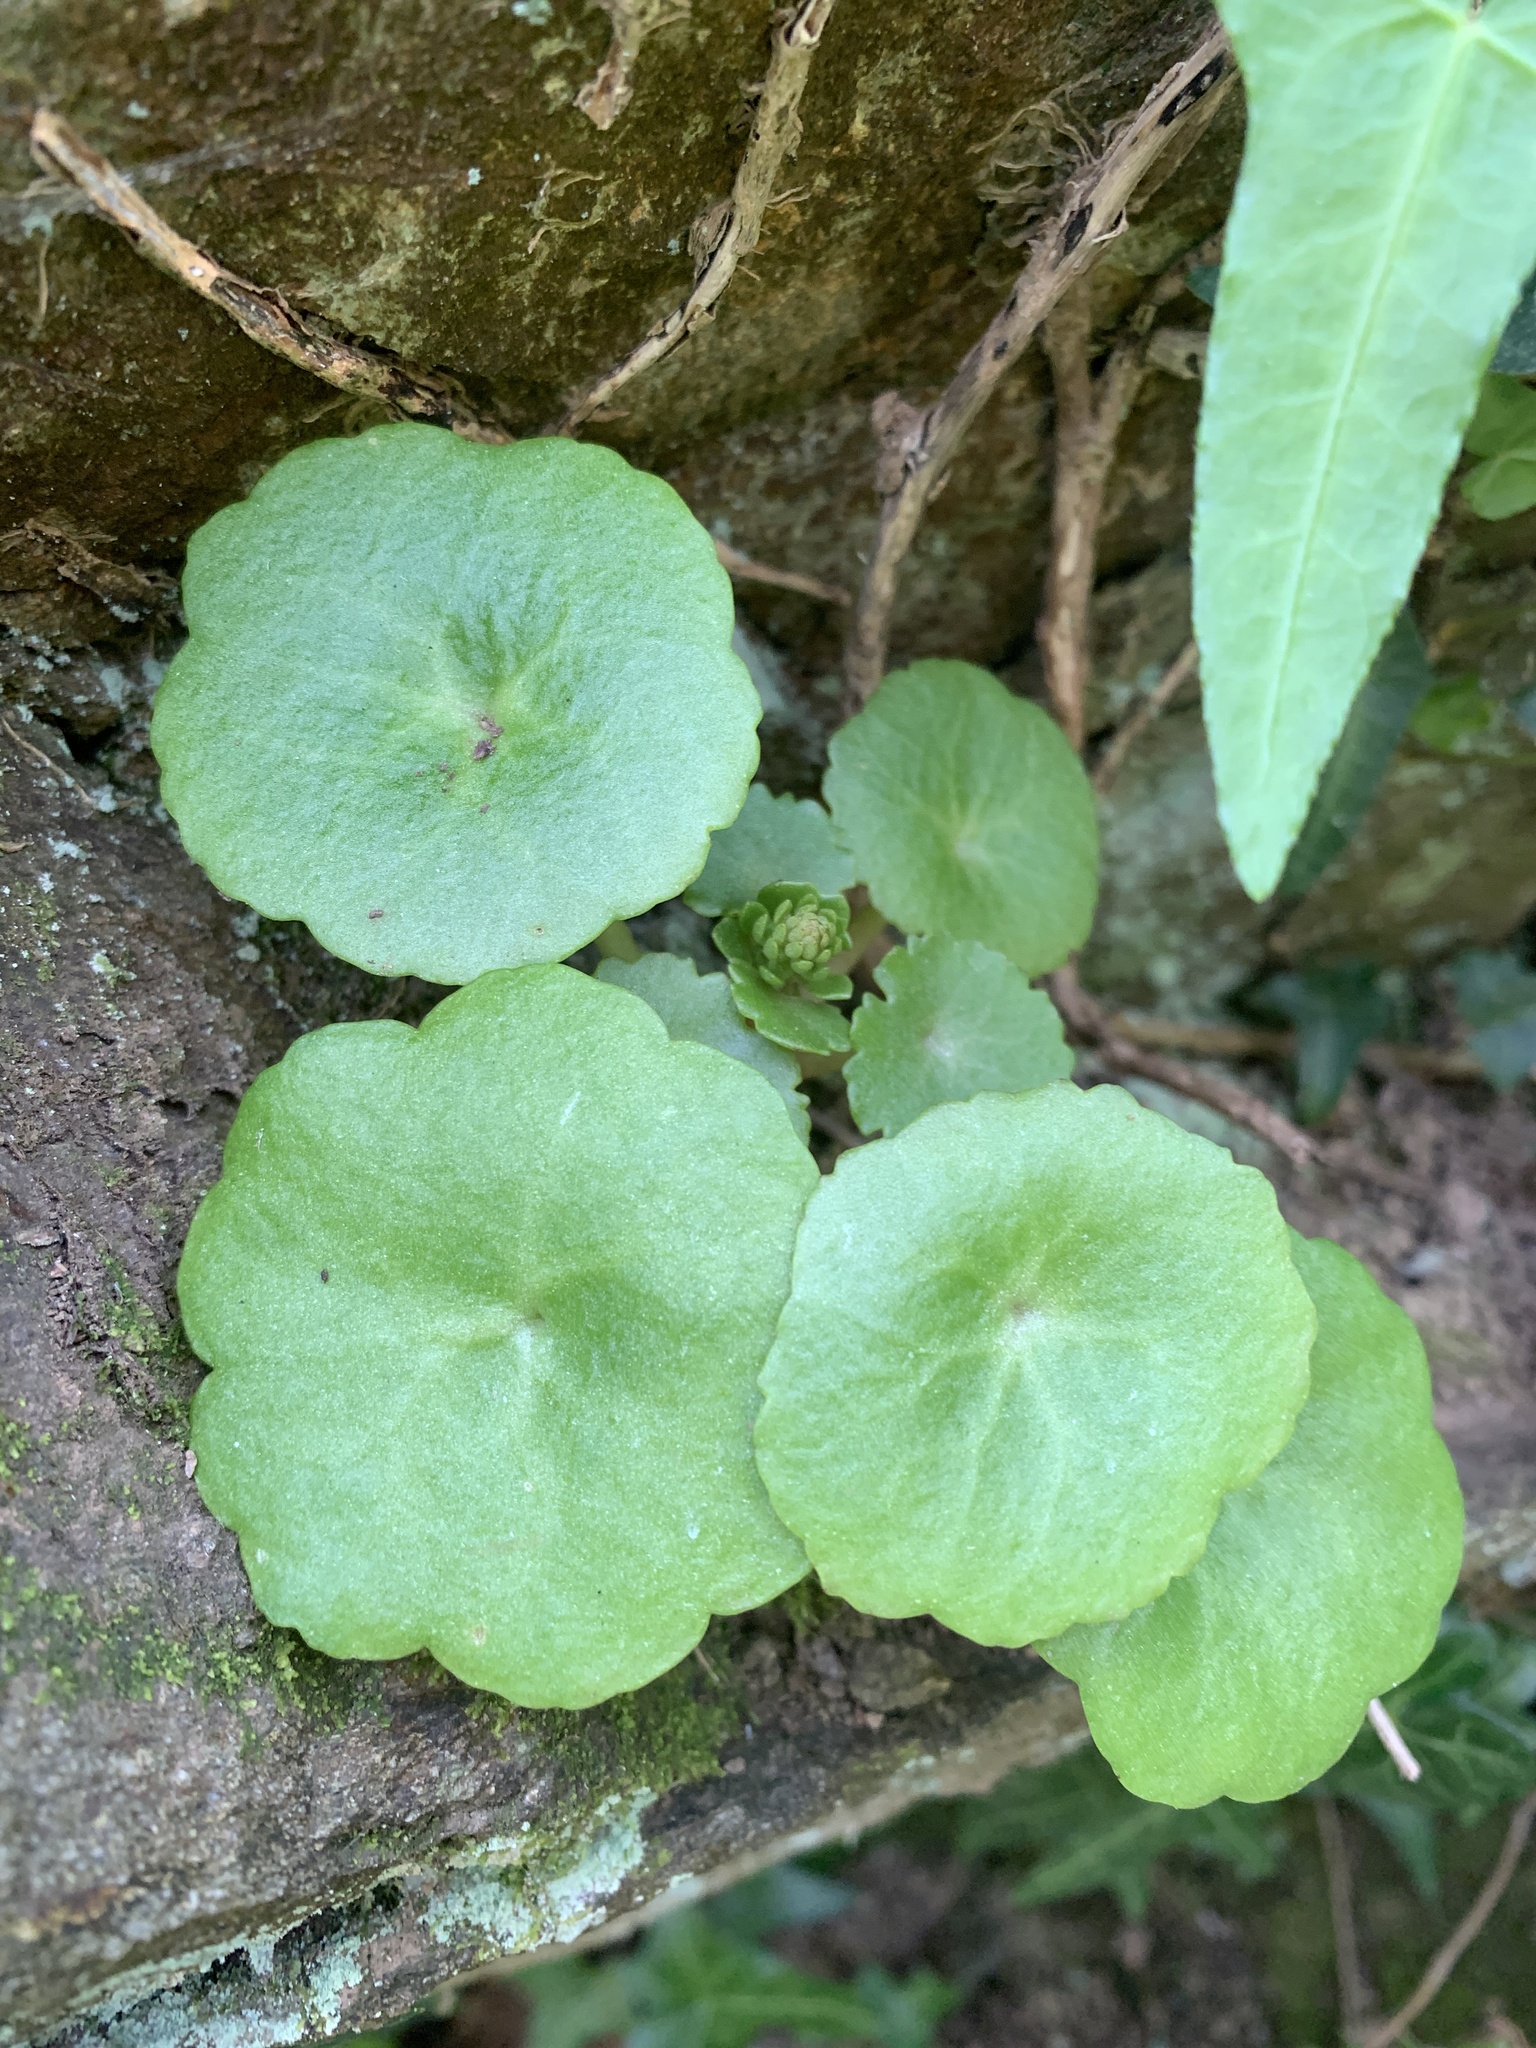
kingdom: Plantae
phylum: Tracheophyta
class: Magnoliopsida
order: Saxifragales
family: Crassulaceae
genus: Umbilicus
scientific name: Umbilicus rupestris
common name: Navelwort
